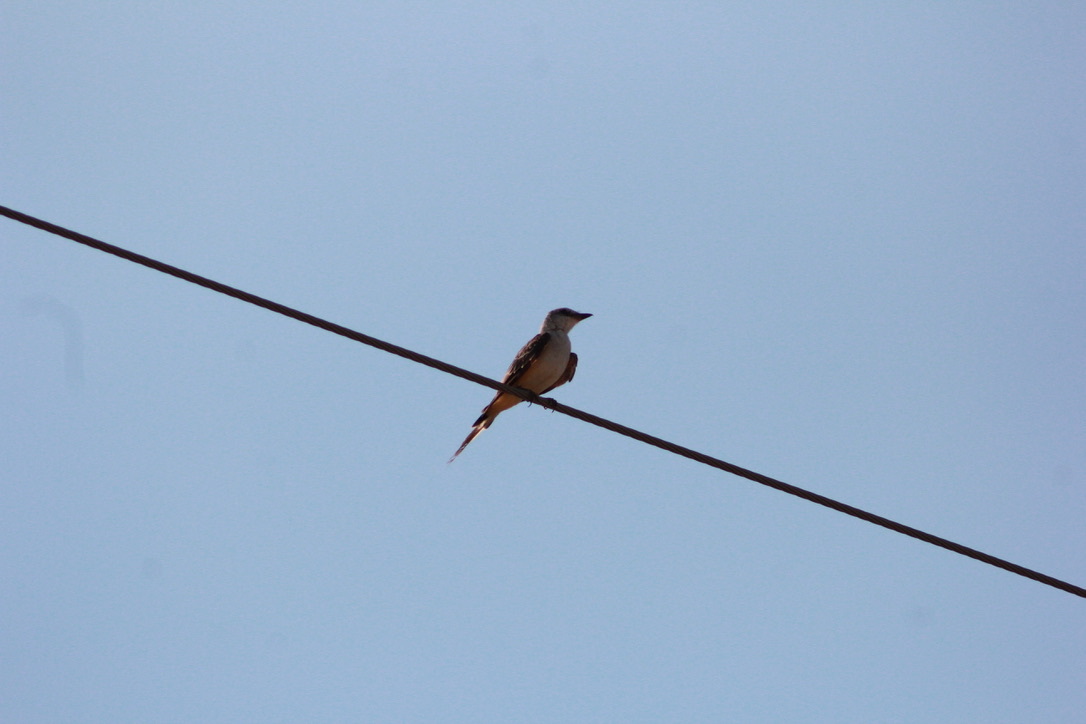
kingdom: Animalia
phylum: Chordata
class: Aves
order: Passeriformes
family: Tyrannidae
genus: Tyrannus
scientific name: Tyrannus forficatus
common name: Scissor-tailed flycatcher
